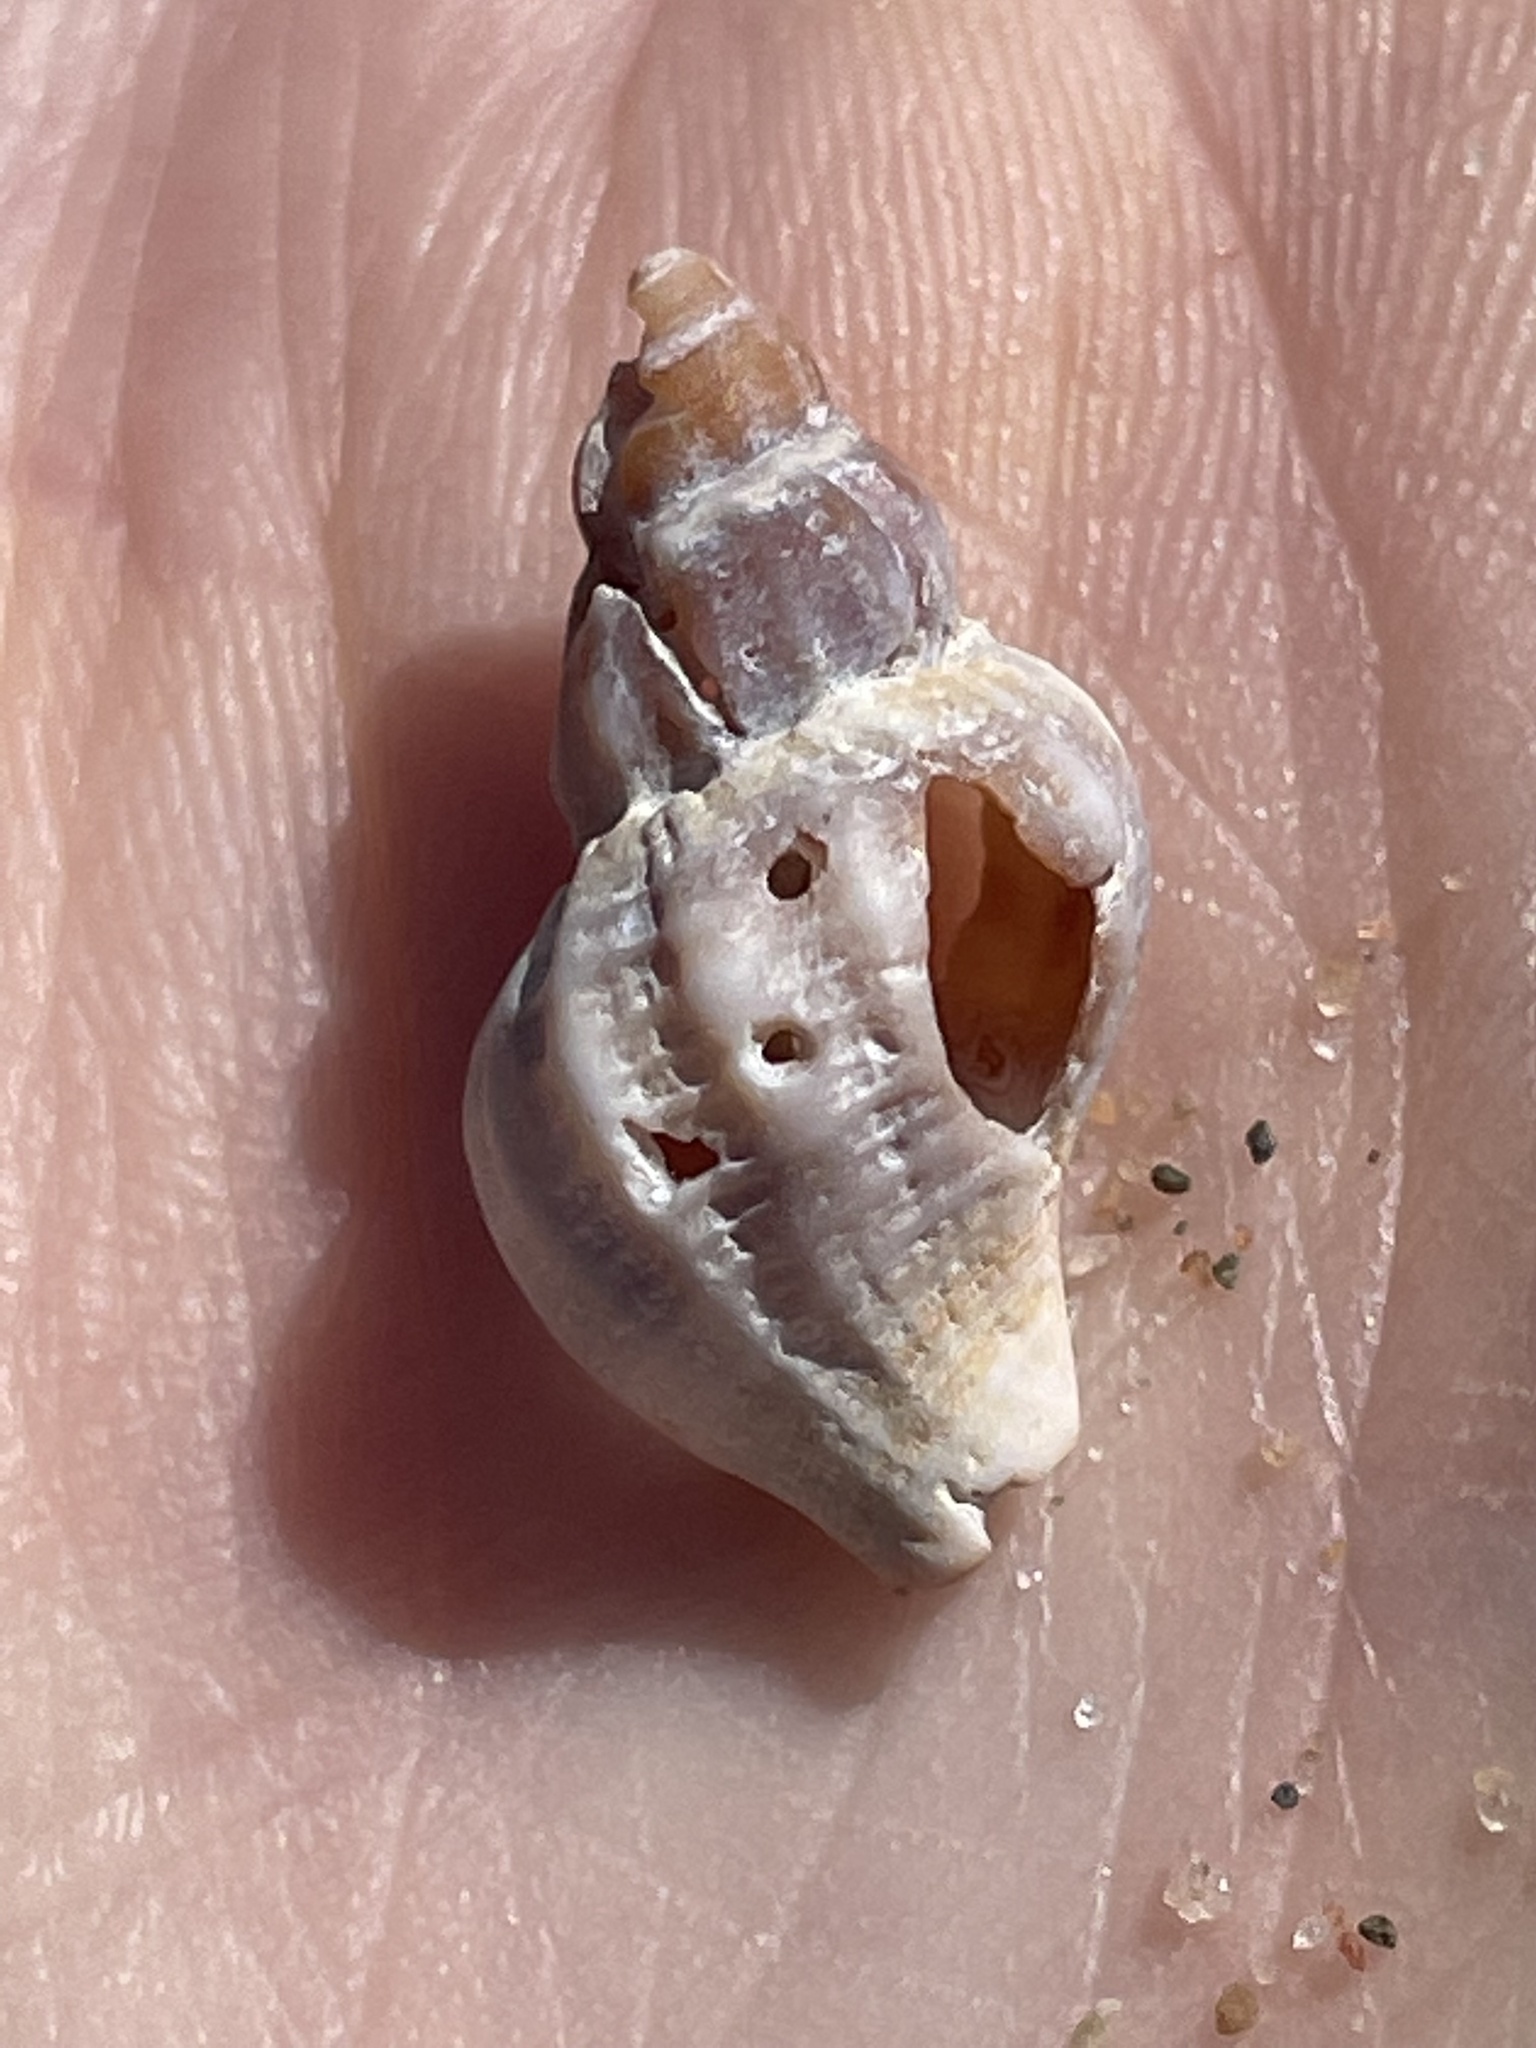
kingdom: Animalia
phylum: Mollusca
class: Gastropoda
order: Neogastropoda
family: Muricidae
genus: Urosalpinx
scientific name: Urosalpinx cinerea
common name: American sting winkle
